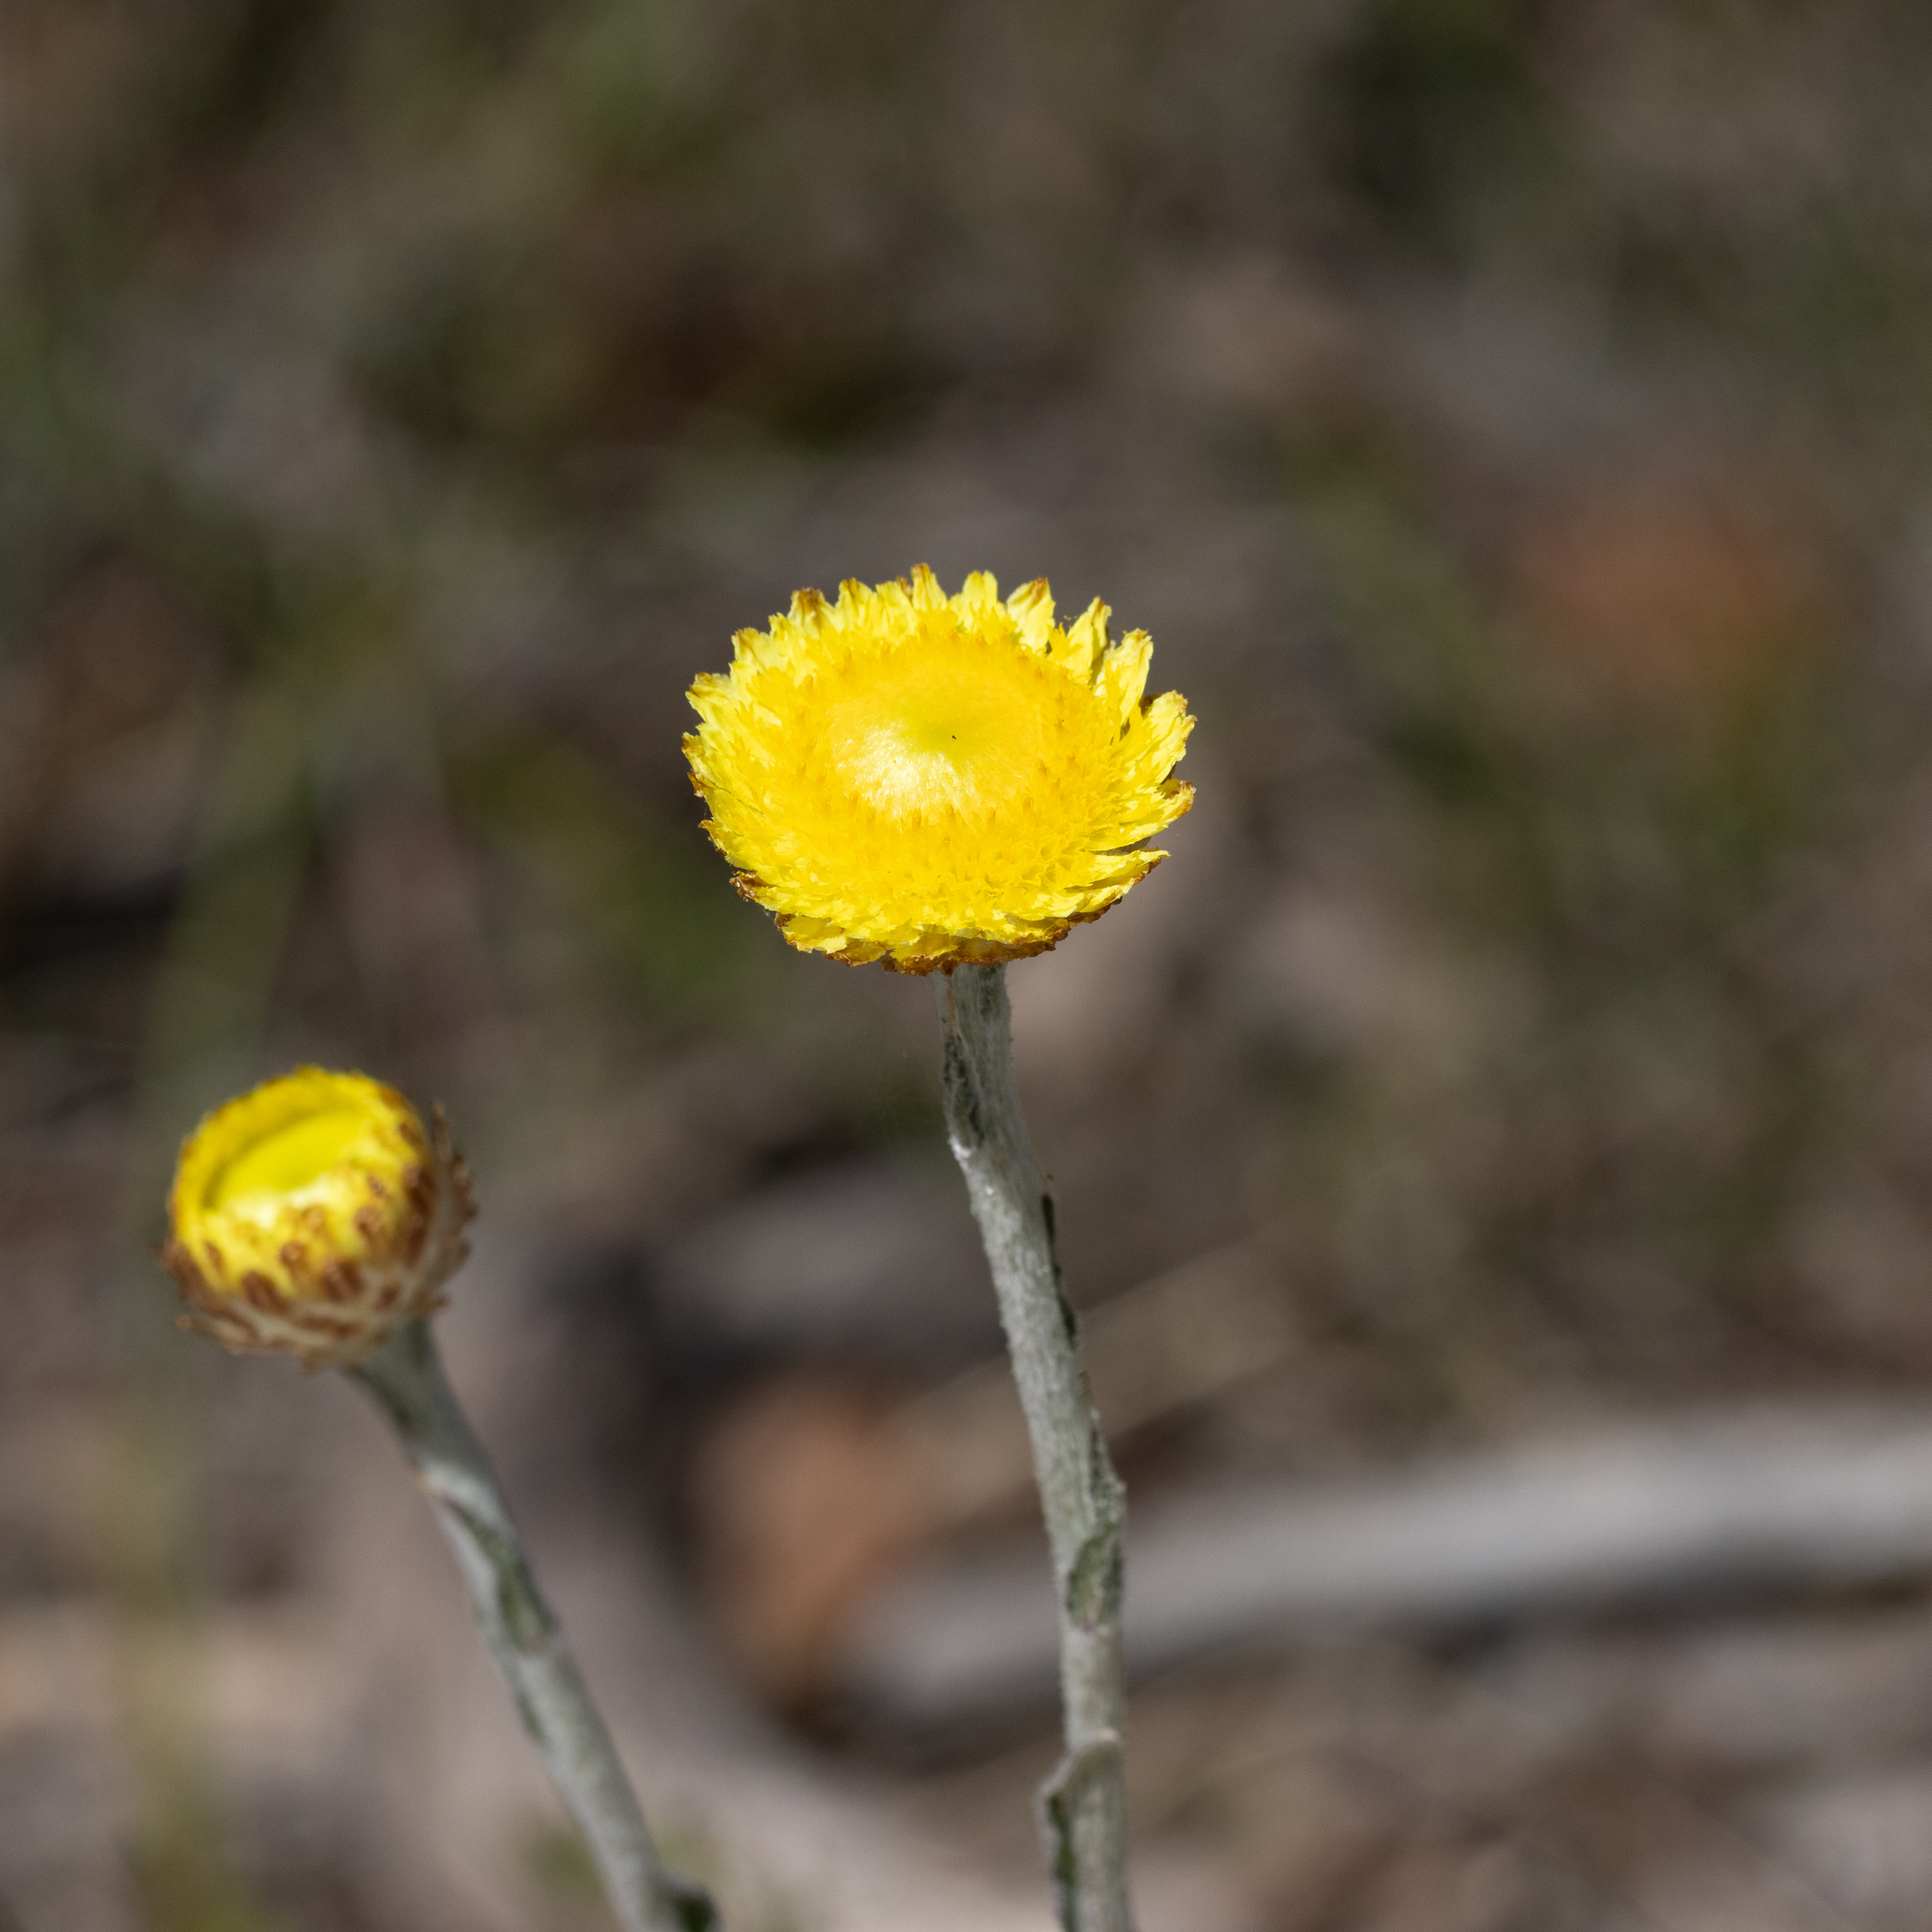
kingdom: Plantae
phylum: Tracheophyta
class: Magnoliopsida
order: Asterales
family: Asteraceae
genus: Coronidium
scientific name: Coronidium scorpioides
